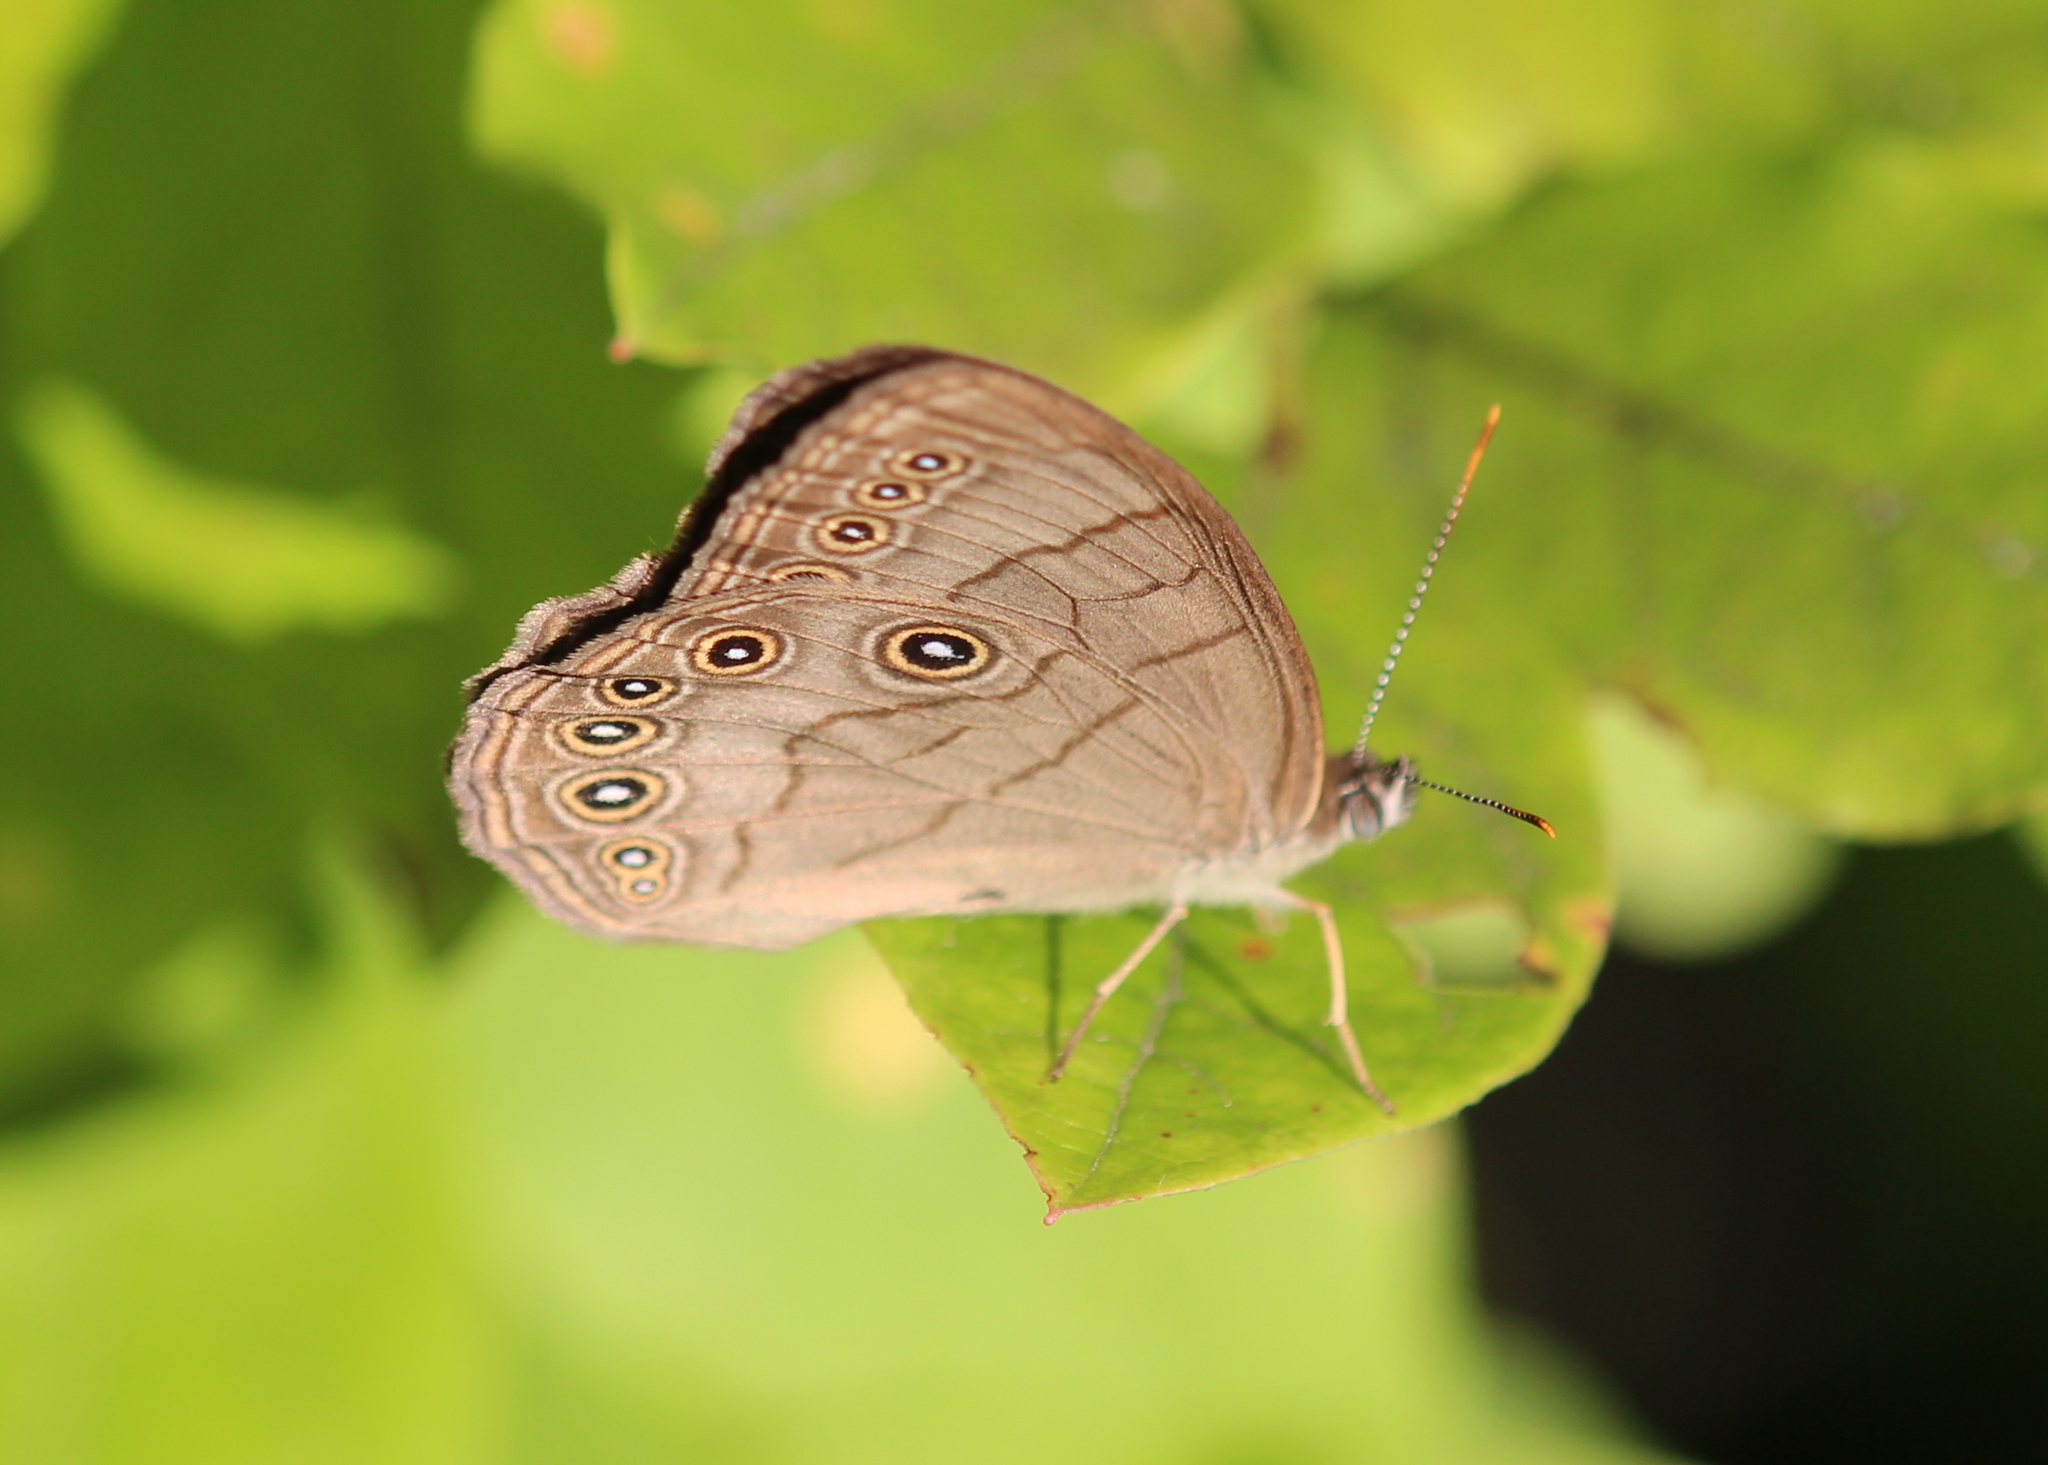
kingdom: Animalia
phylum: Arthropoda
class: Insecta
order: Lepidoptera
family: Nymphalidae
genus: Lethe
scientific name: Lethe eurydice
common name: Eyed brown
